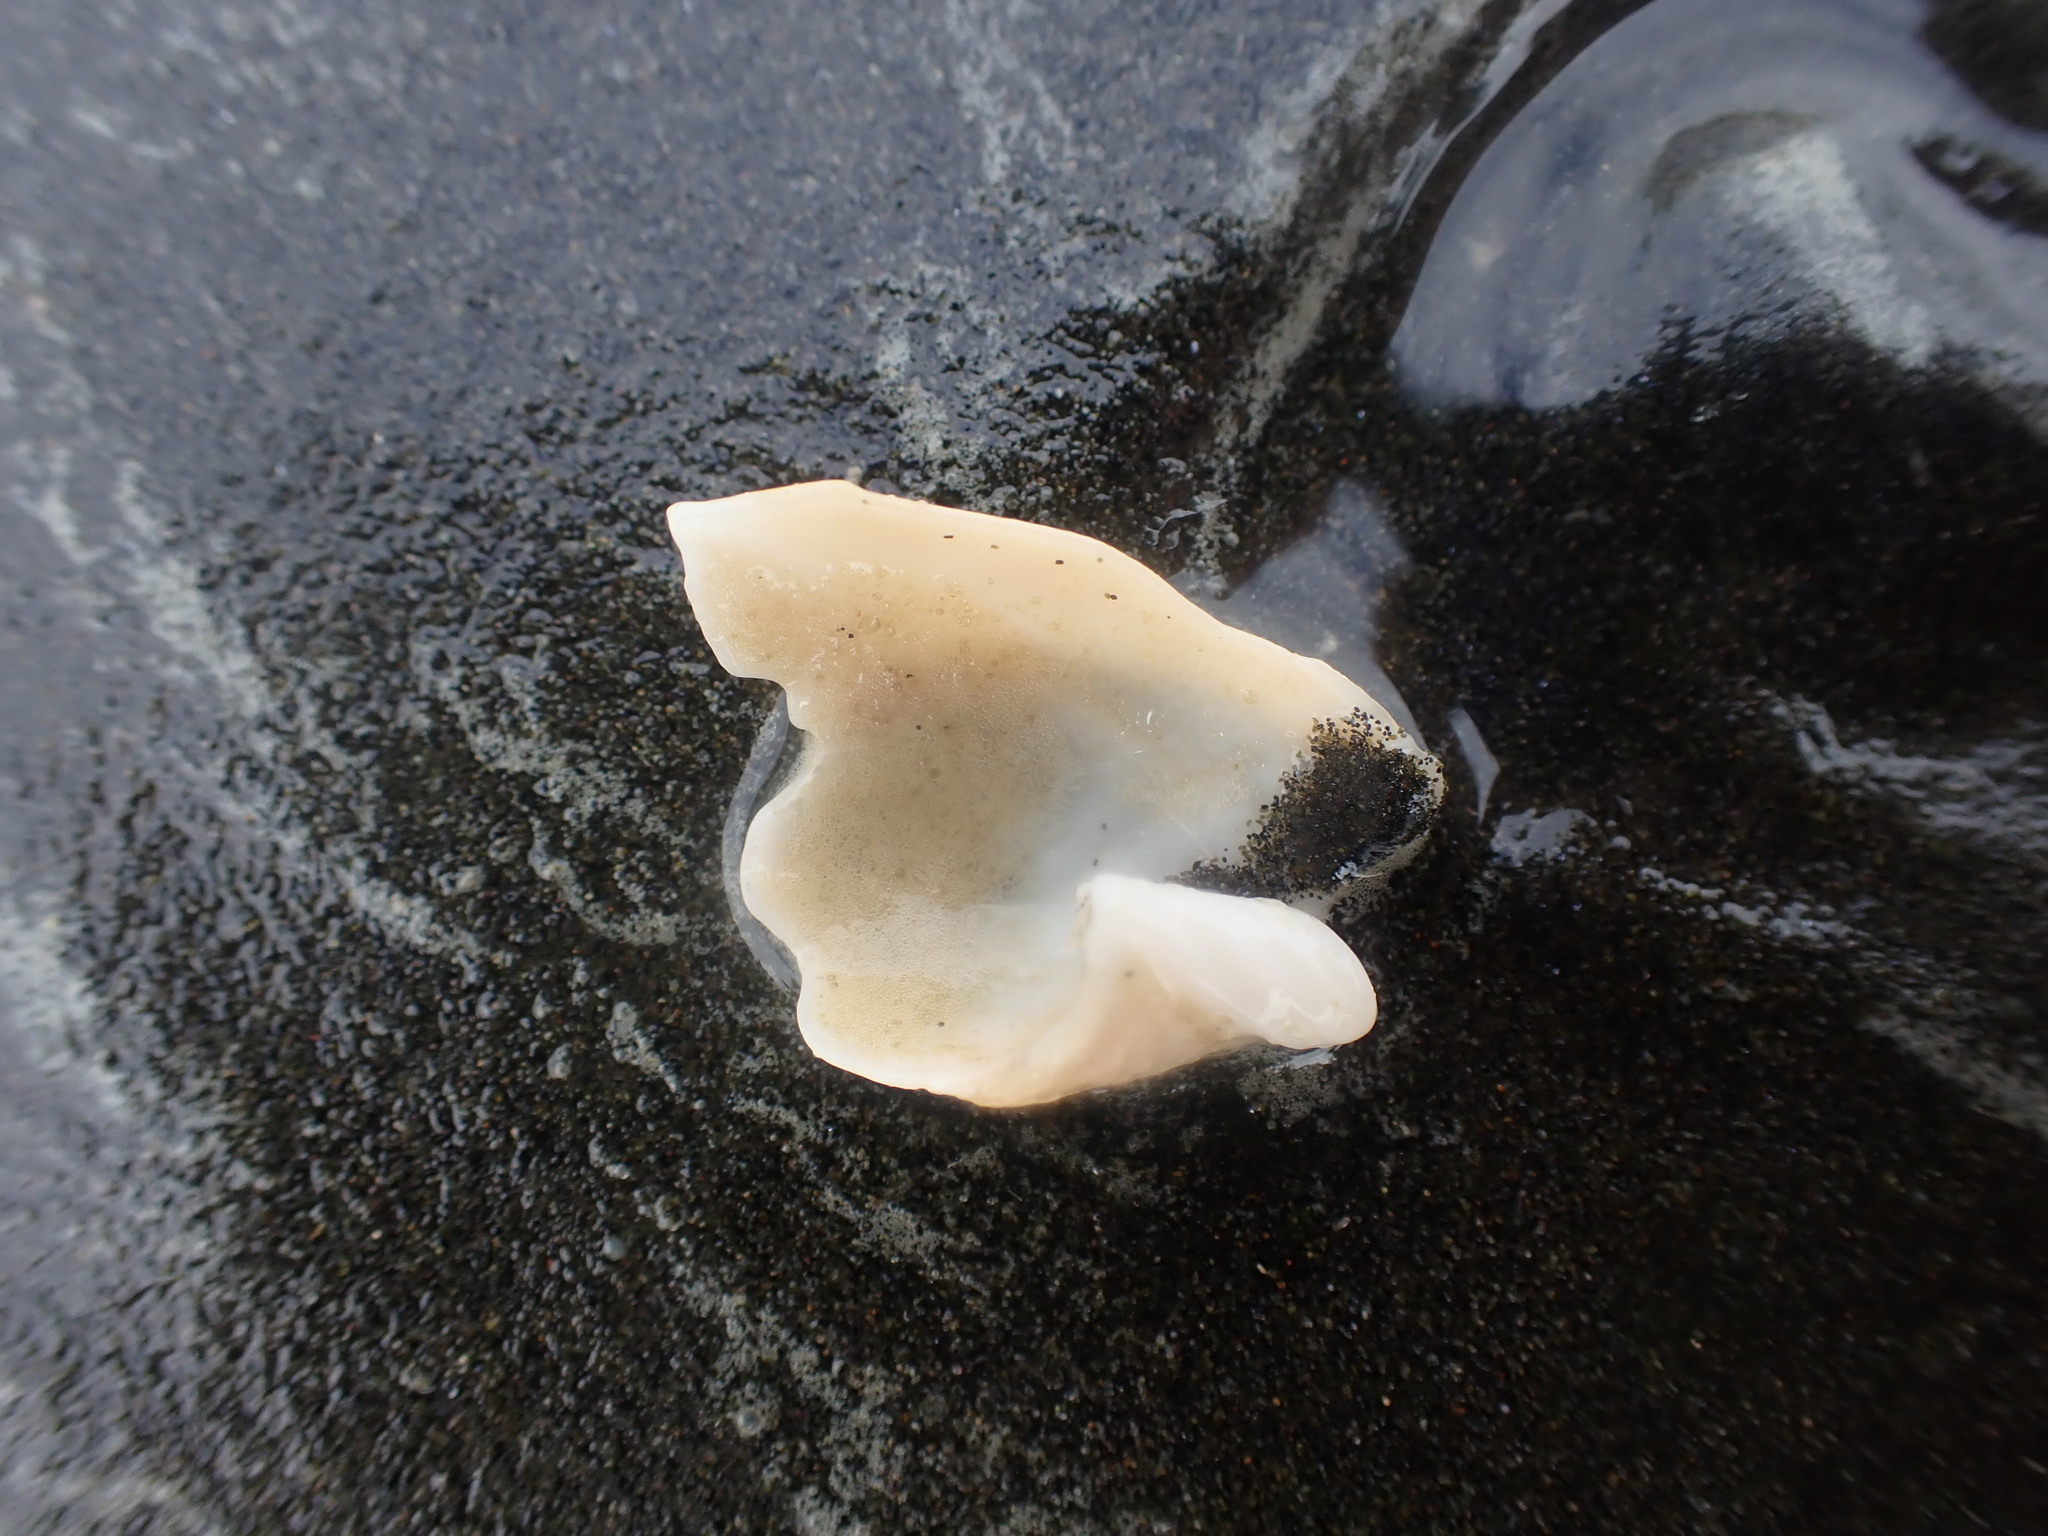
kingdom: Animalia
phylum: Mollusca
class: Gastropoda
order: Neogastropoda
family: Ancillariidae
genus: Amalda
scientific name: Amalda mucronata
